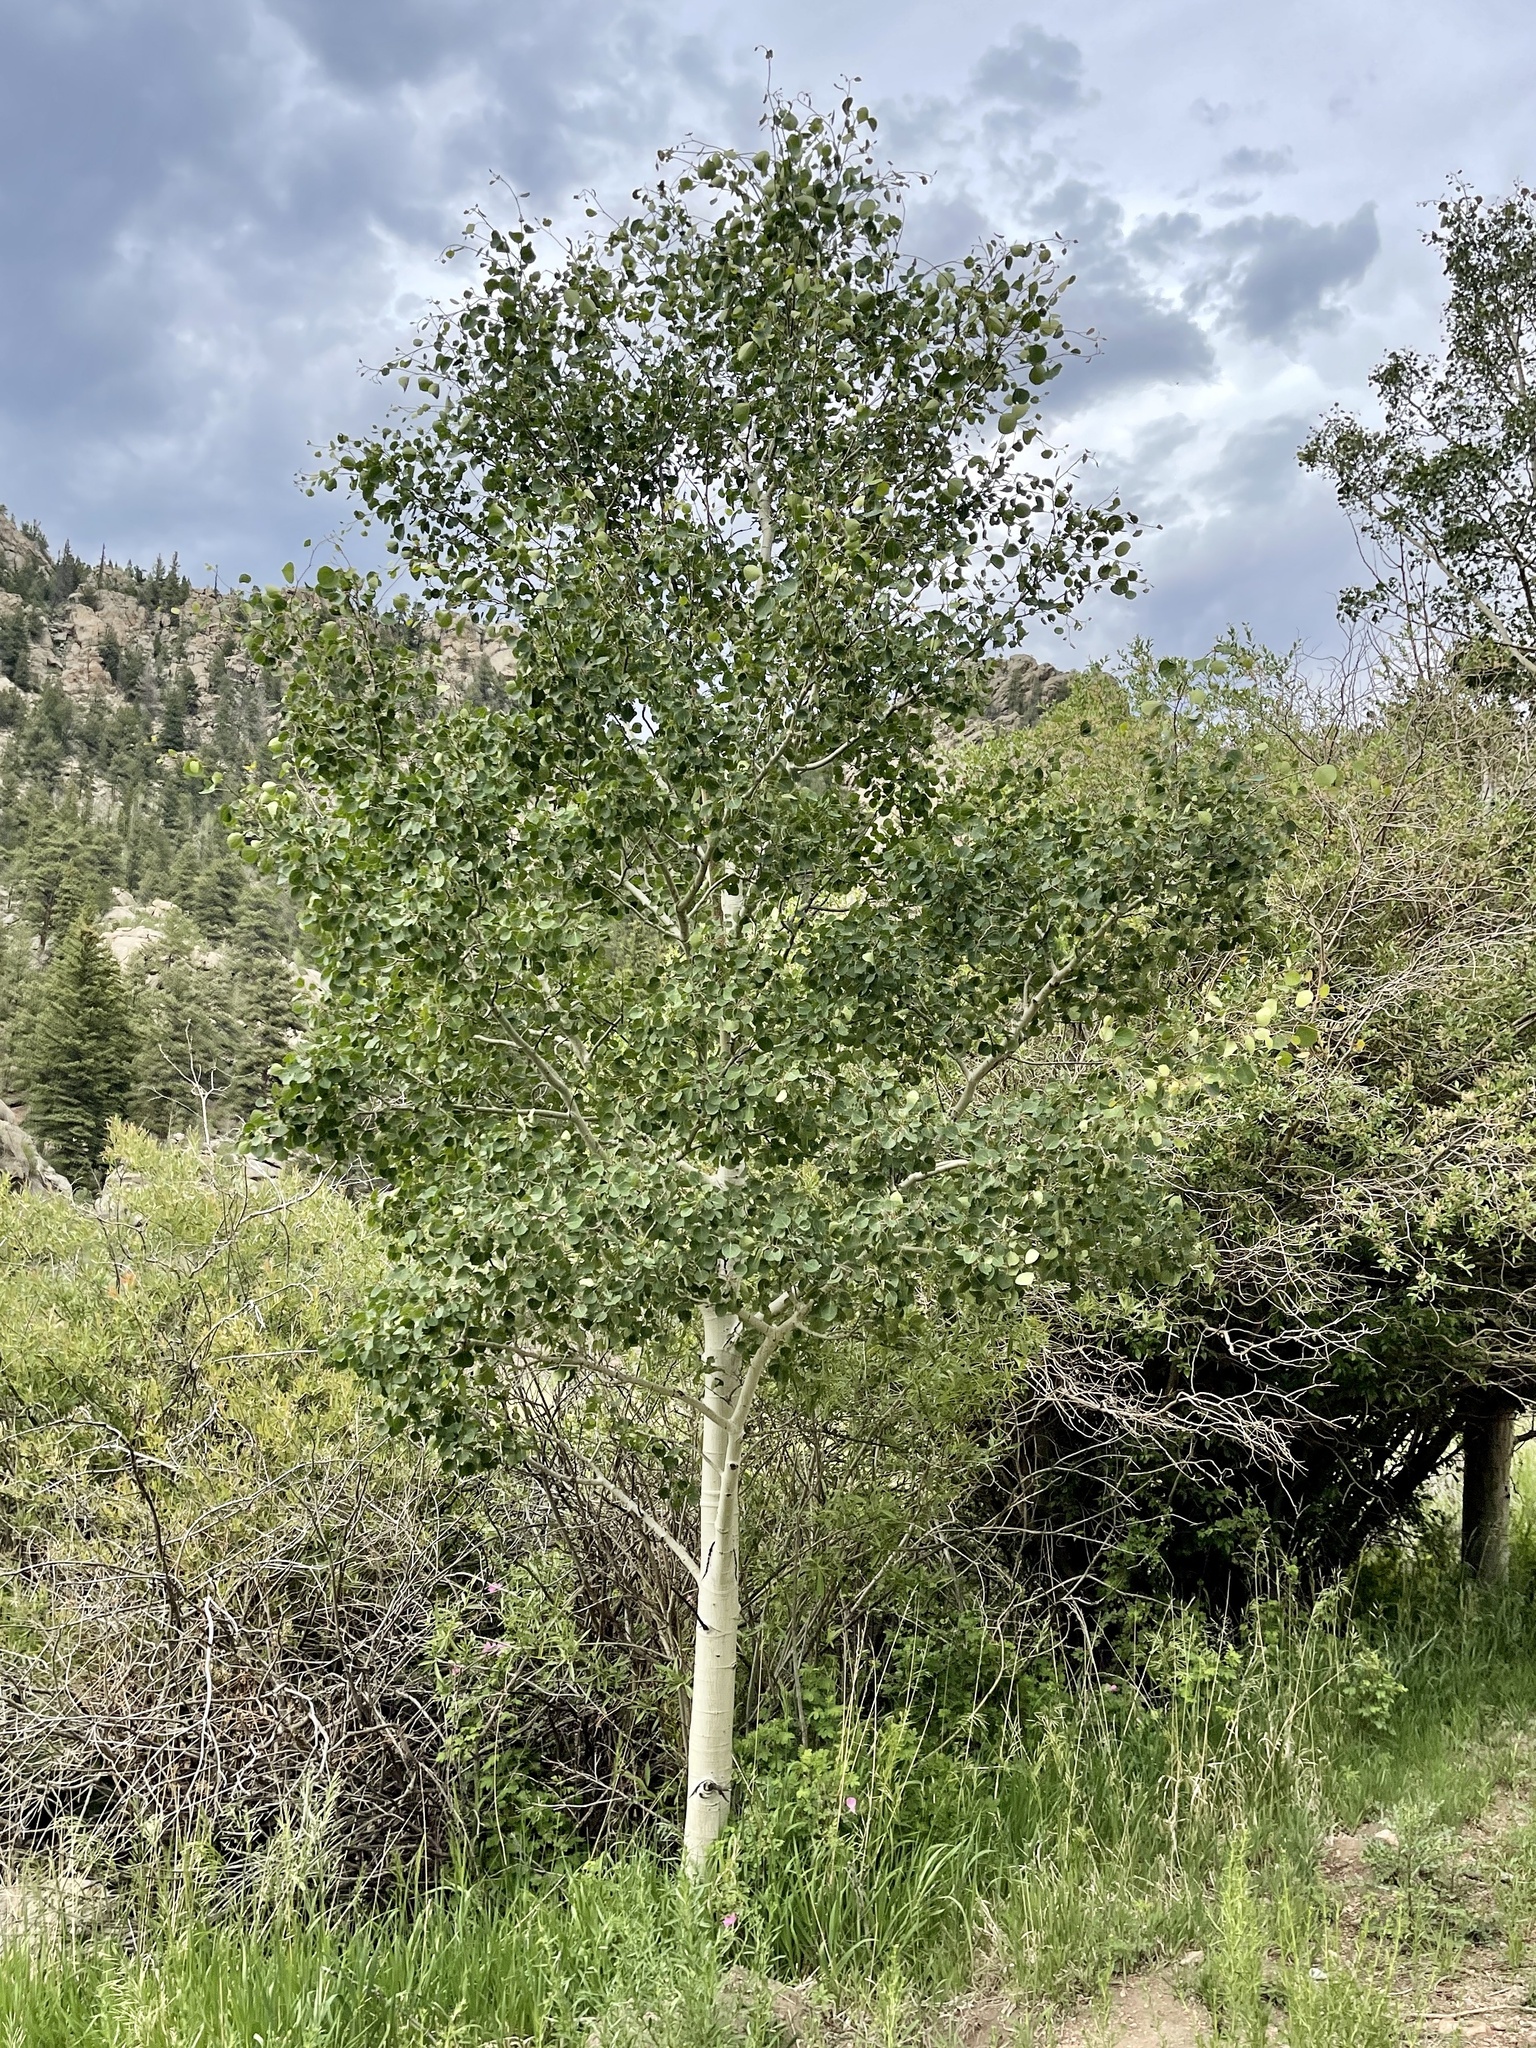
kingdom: Plantae
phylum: Tracheophyta
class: Magnoliopsida
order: Malpighiales
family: Salicaceae
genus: Populus
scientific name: Populus tremuloides
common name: Quaking aspen
